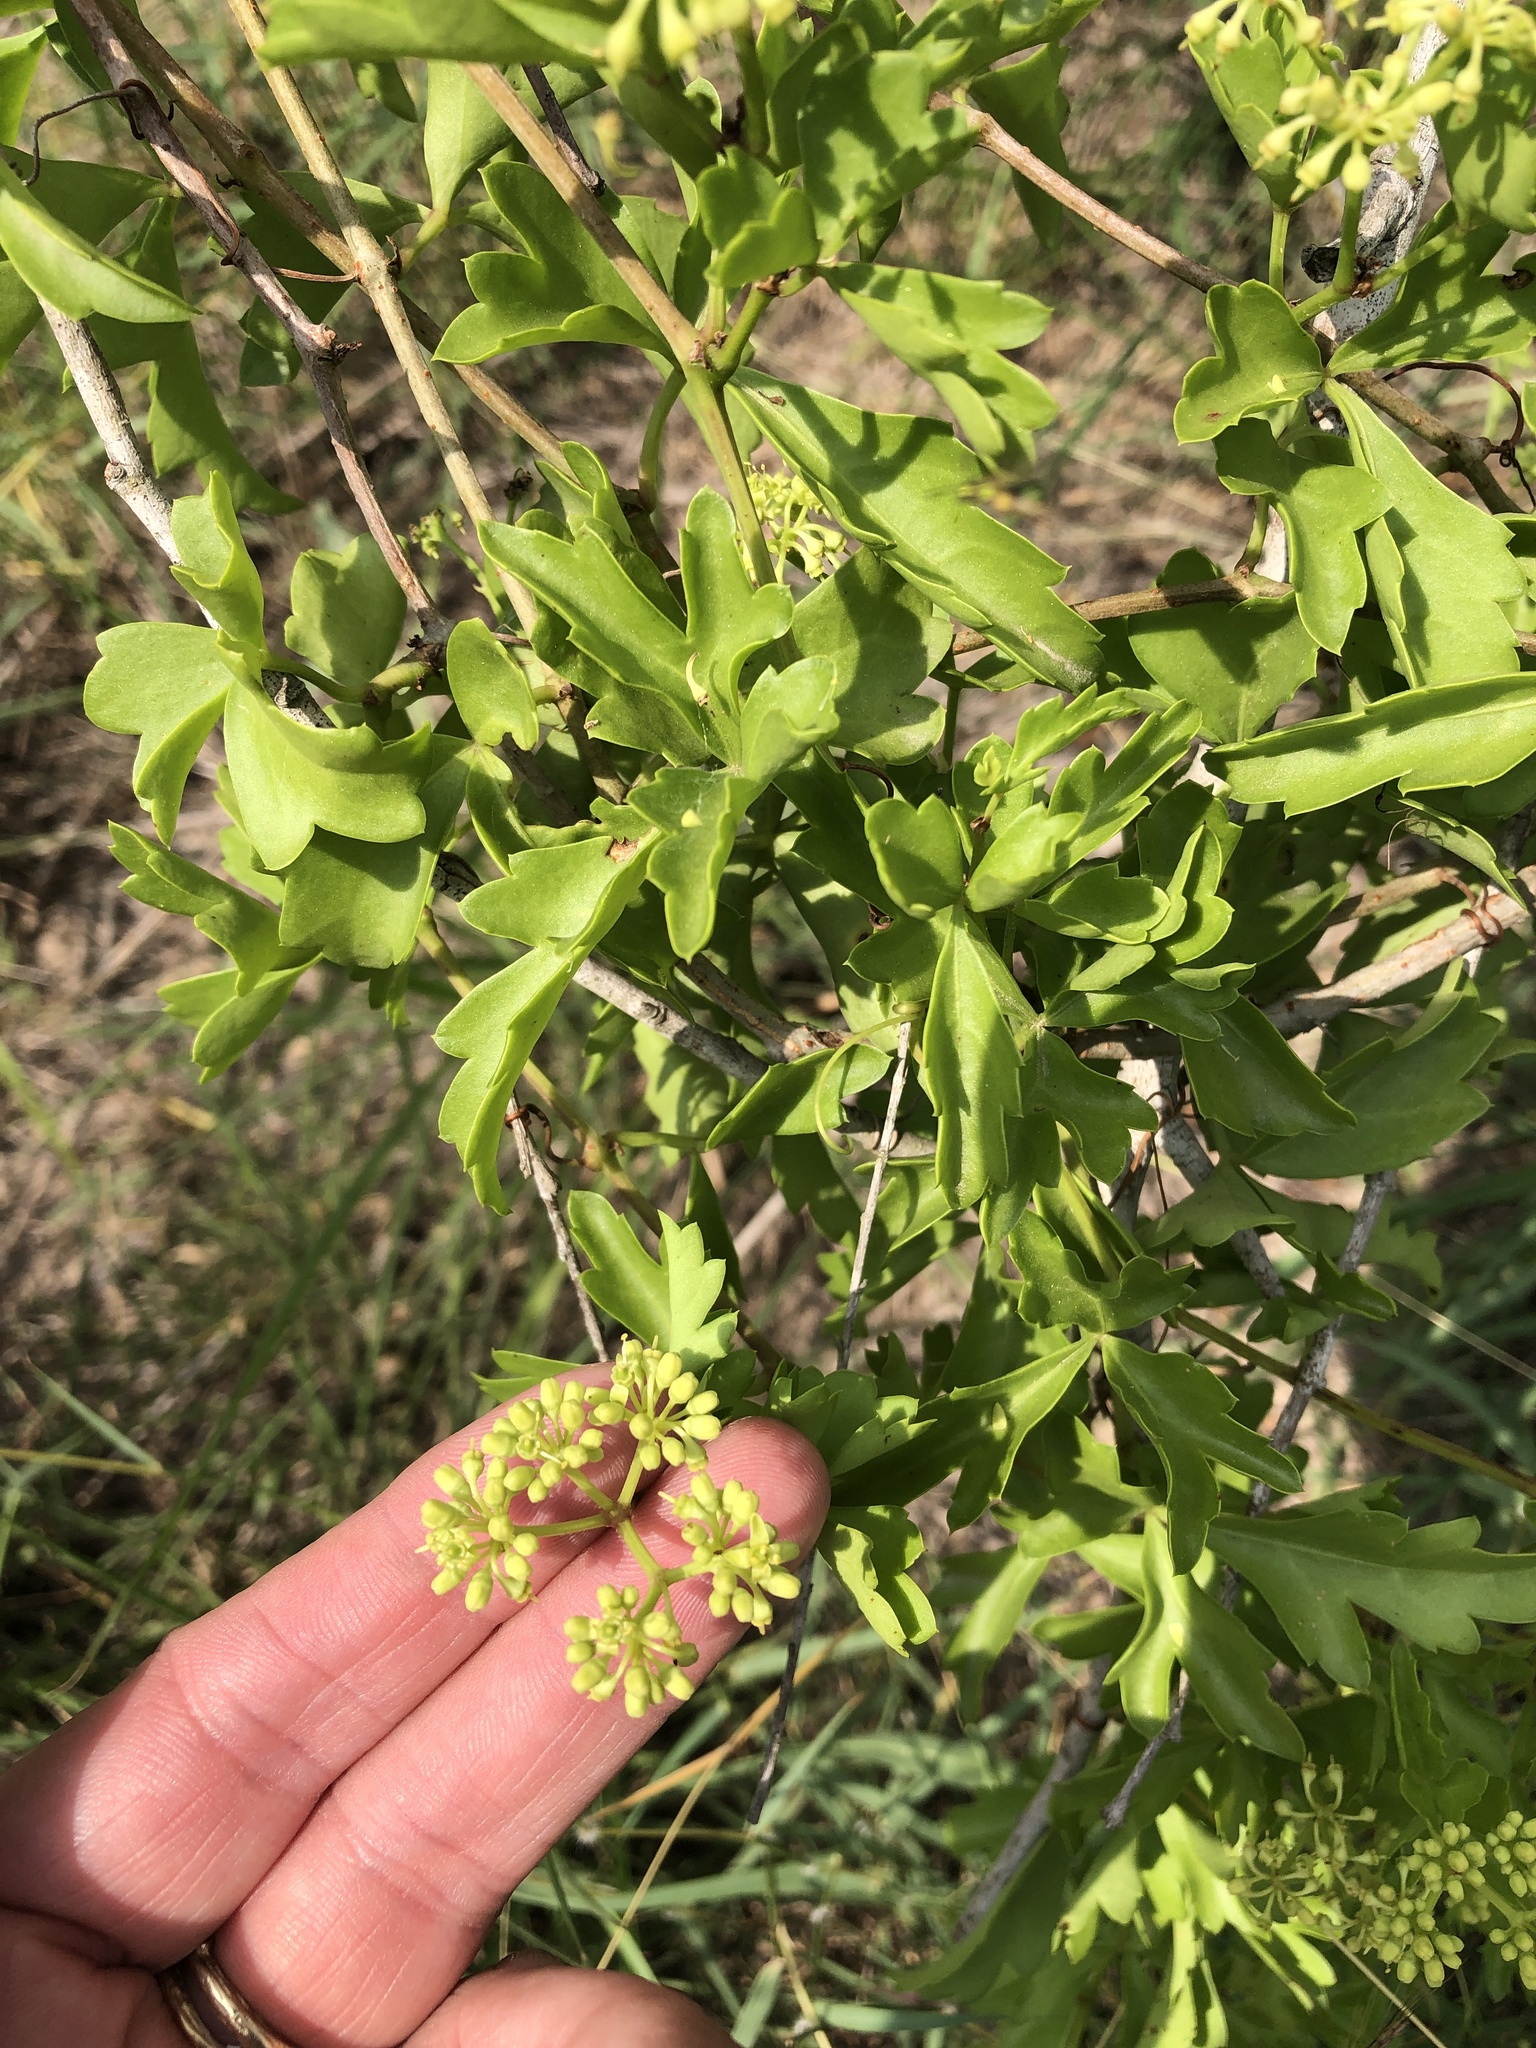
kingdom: Plantae
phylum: Tracheophyta
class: Magnoliopsida
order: Vitales
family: Vitaceae
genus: Cissus
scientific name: Cissus trifoliata
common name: Vine-sorrel
